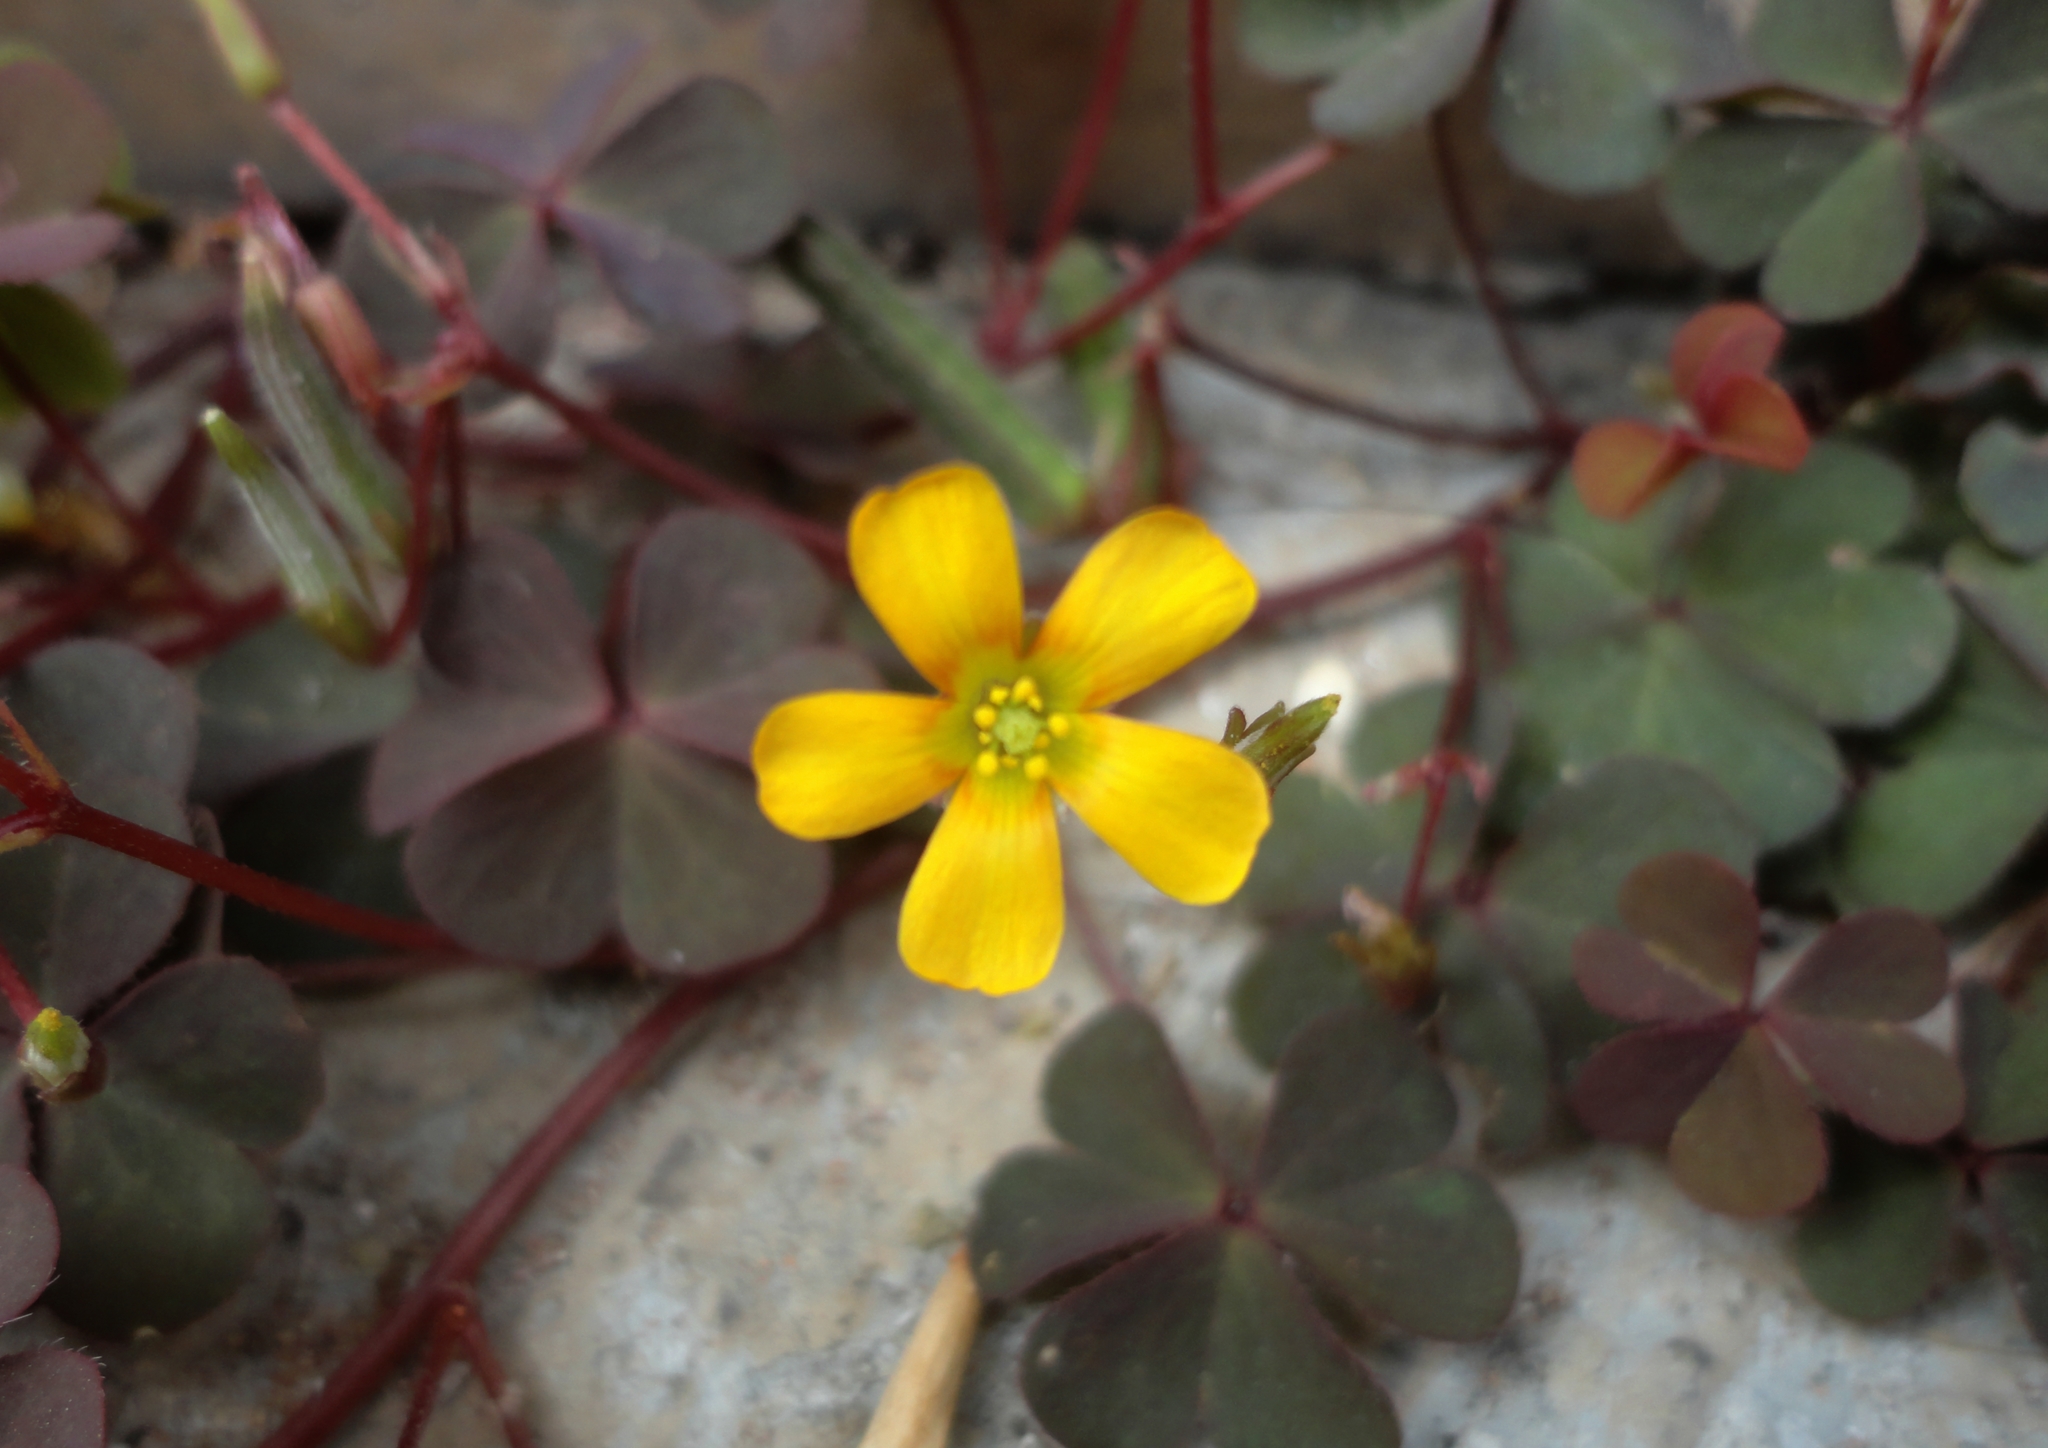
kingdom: Plantae
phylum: Tracheophyta
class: Magnoliopsida
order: Oxalidales
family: Oxalidaceae
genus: Oxalis
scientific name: Oxalis corniculata
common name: Procumbent yellow-sorrel
